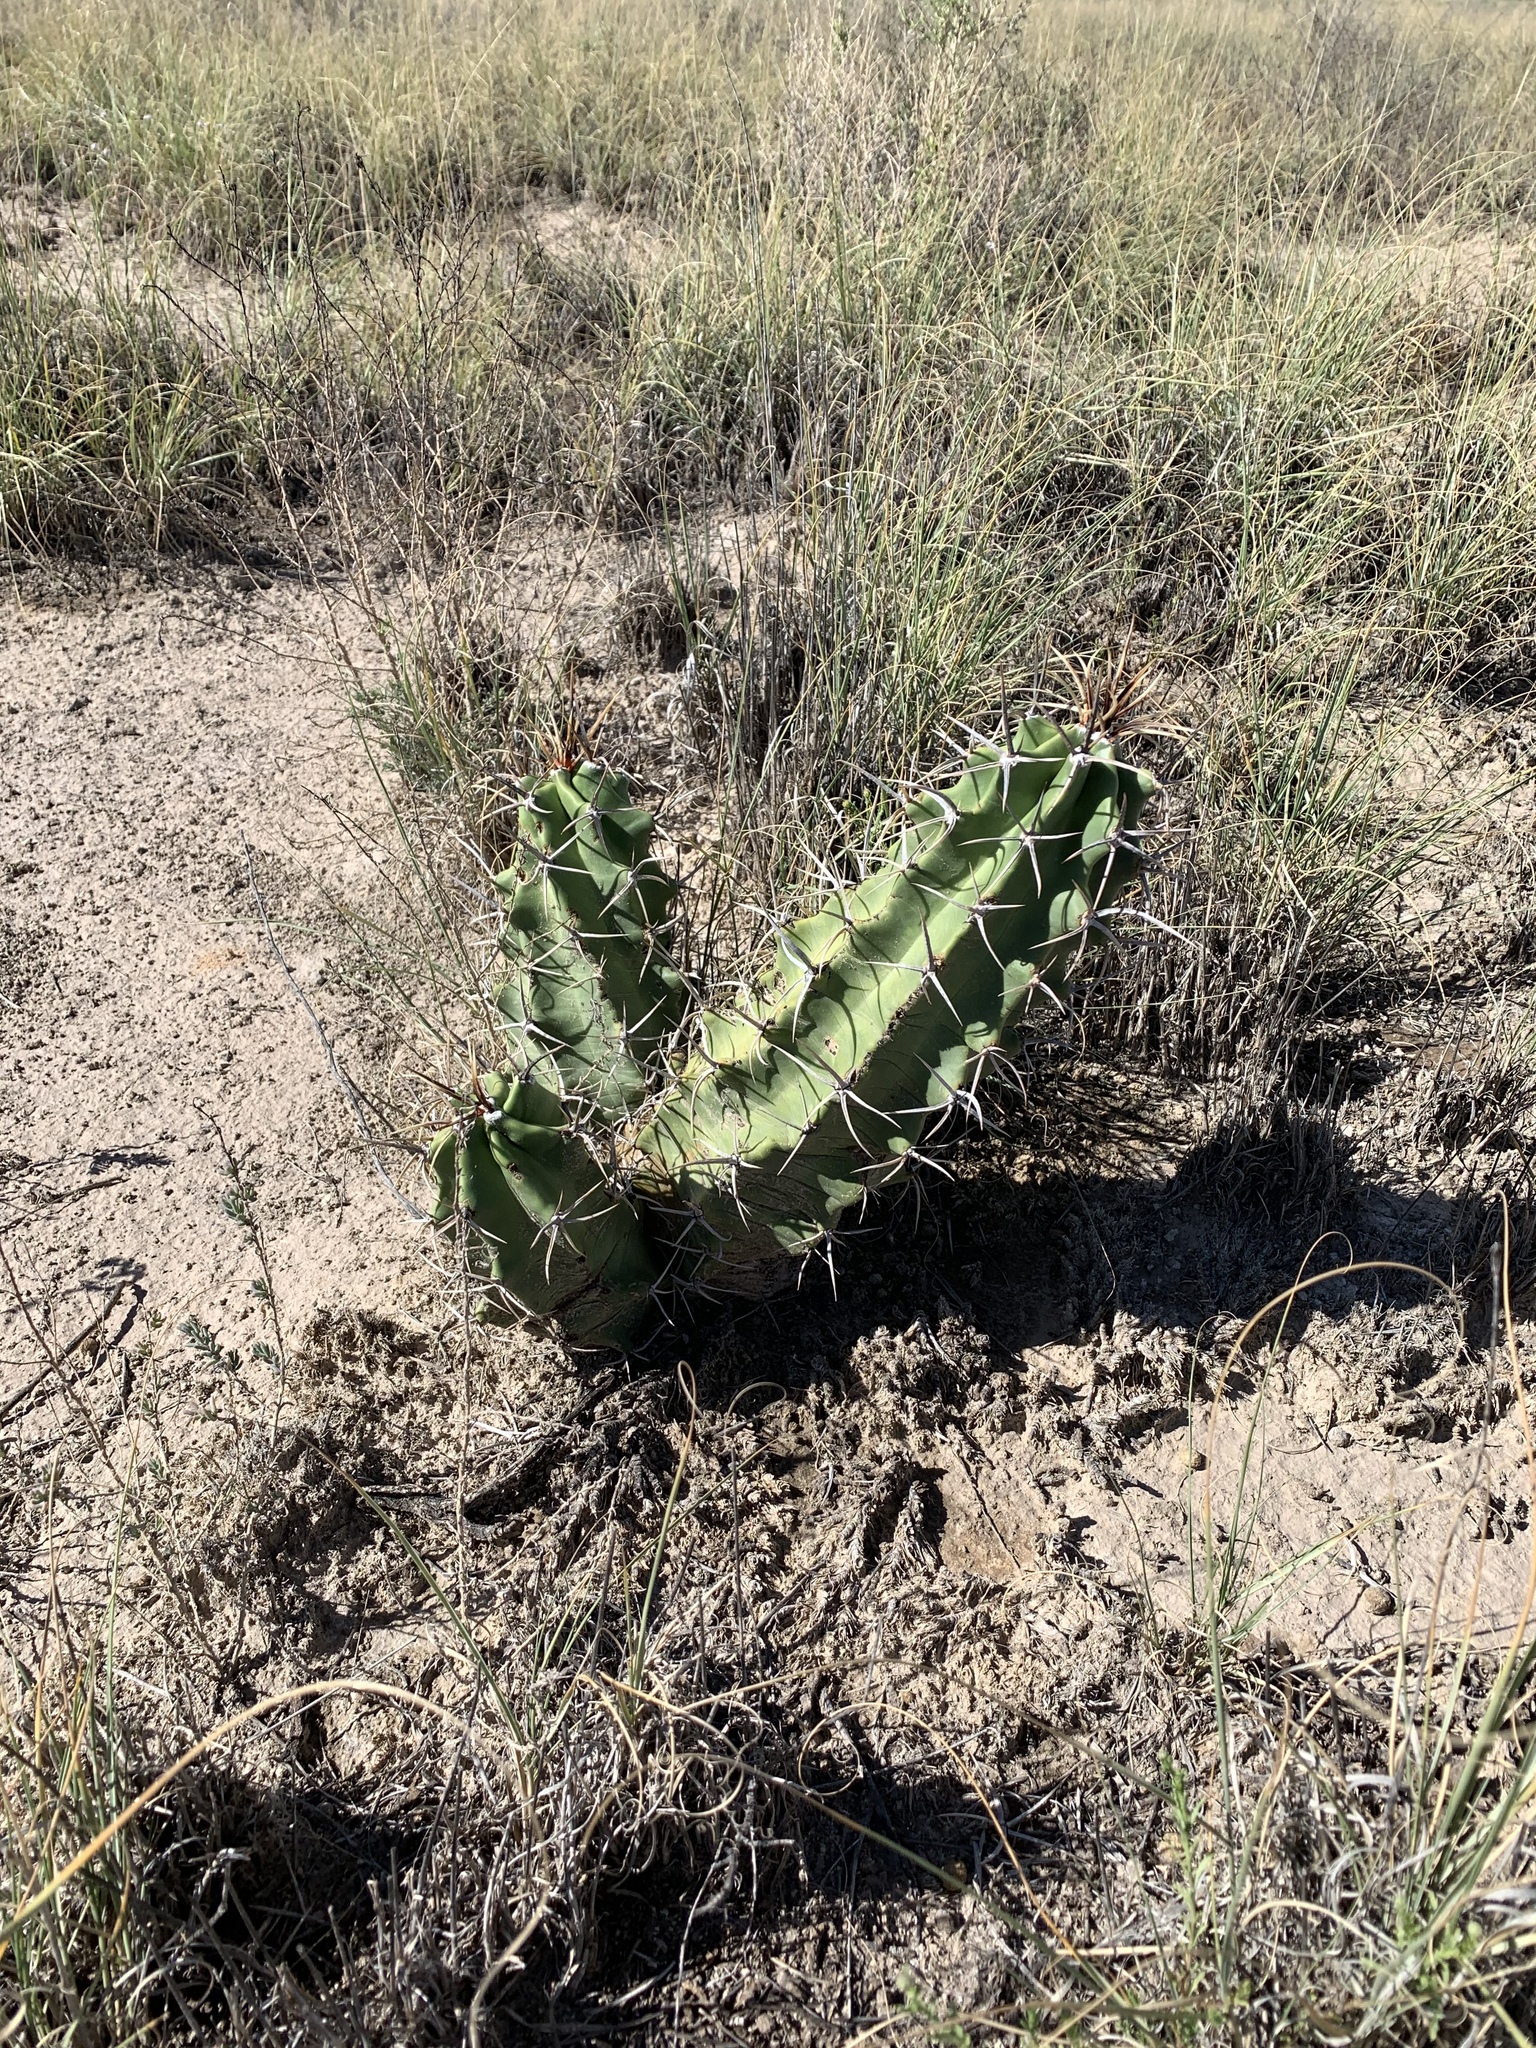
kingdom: Plantae
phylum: Tracheophyta
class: Magnoliopsida
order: Caryophyllales
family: Cactaceae
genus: Echinocereus
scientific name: Echinocereus triglochidiatus
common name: Claretcup hedgehog
